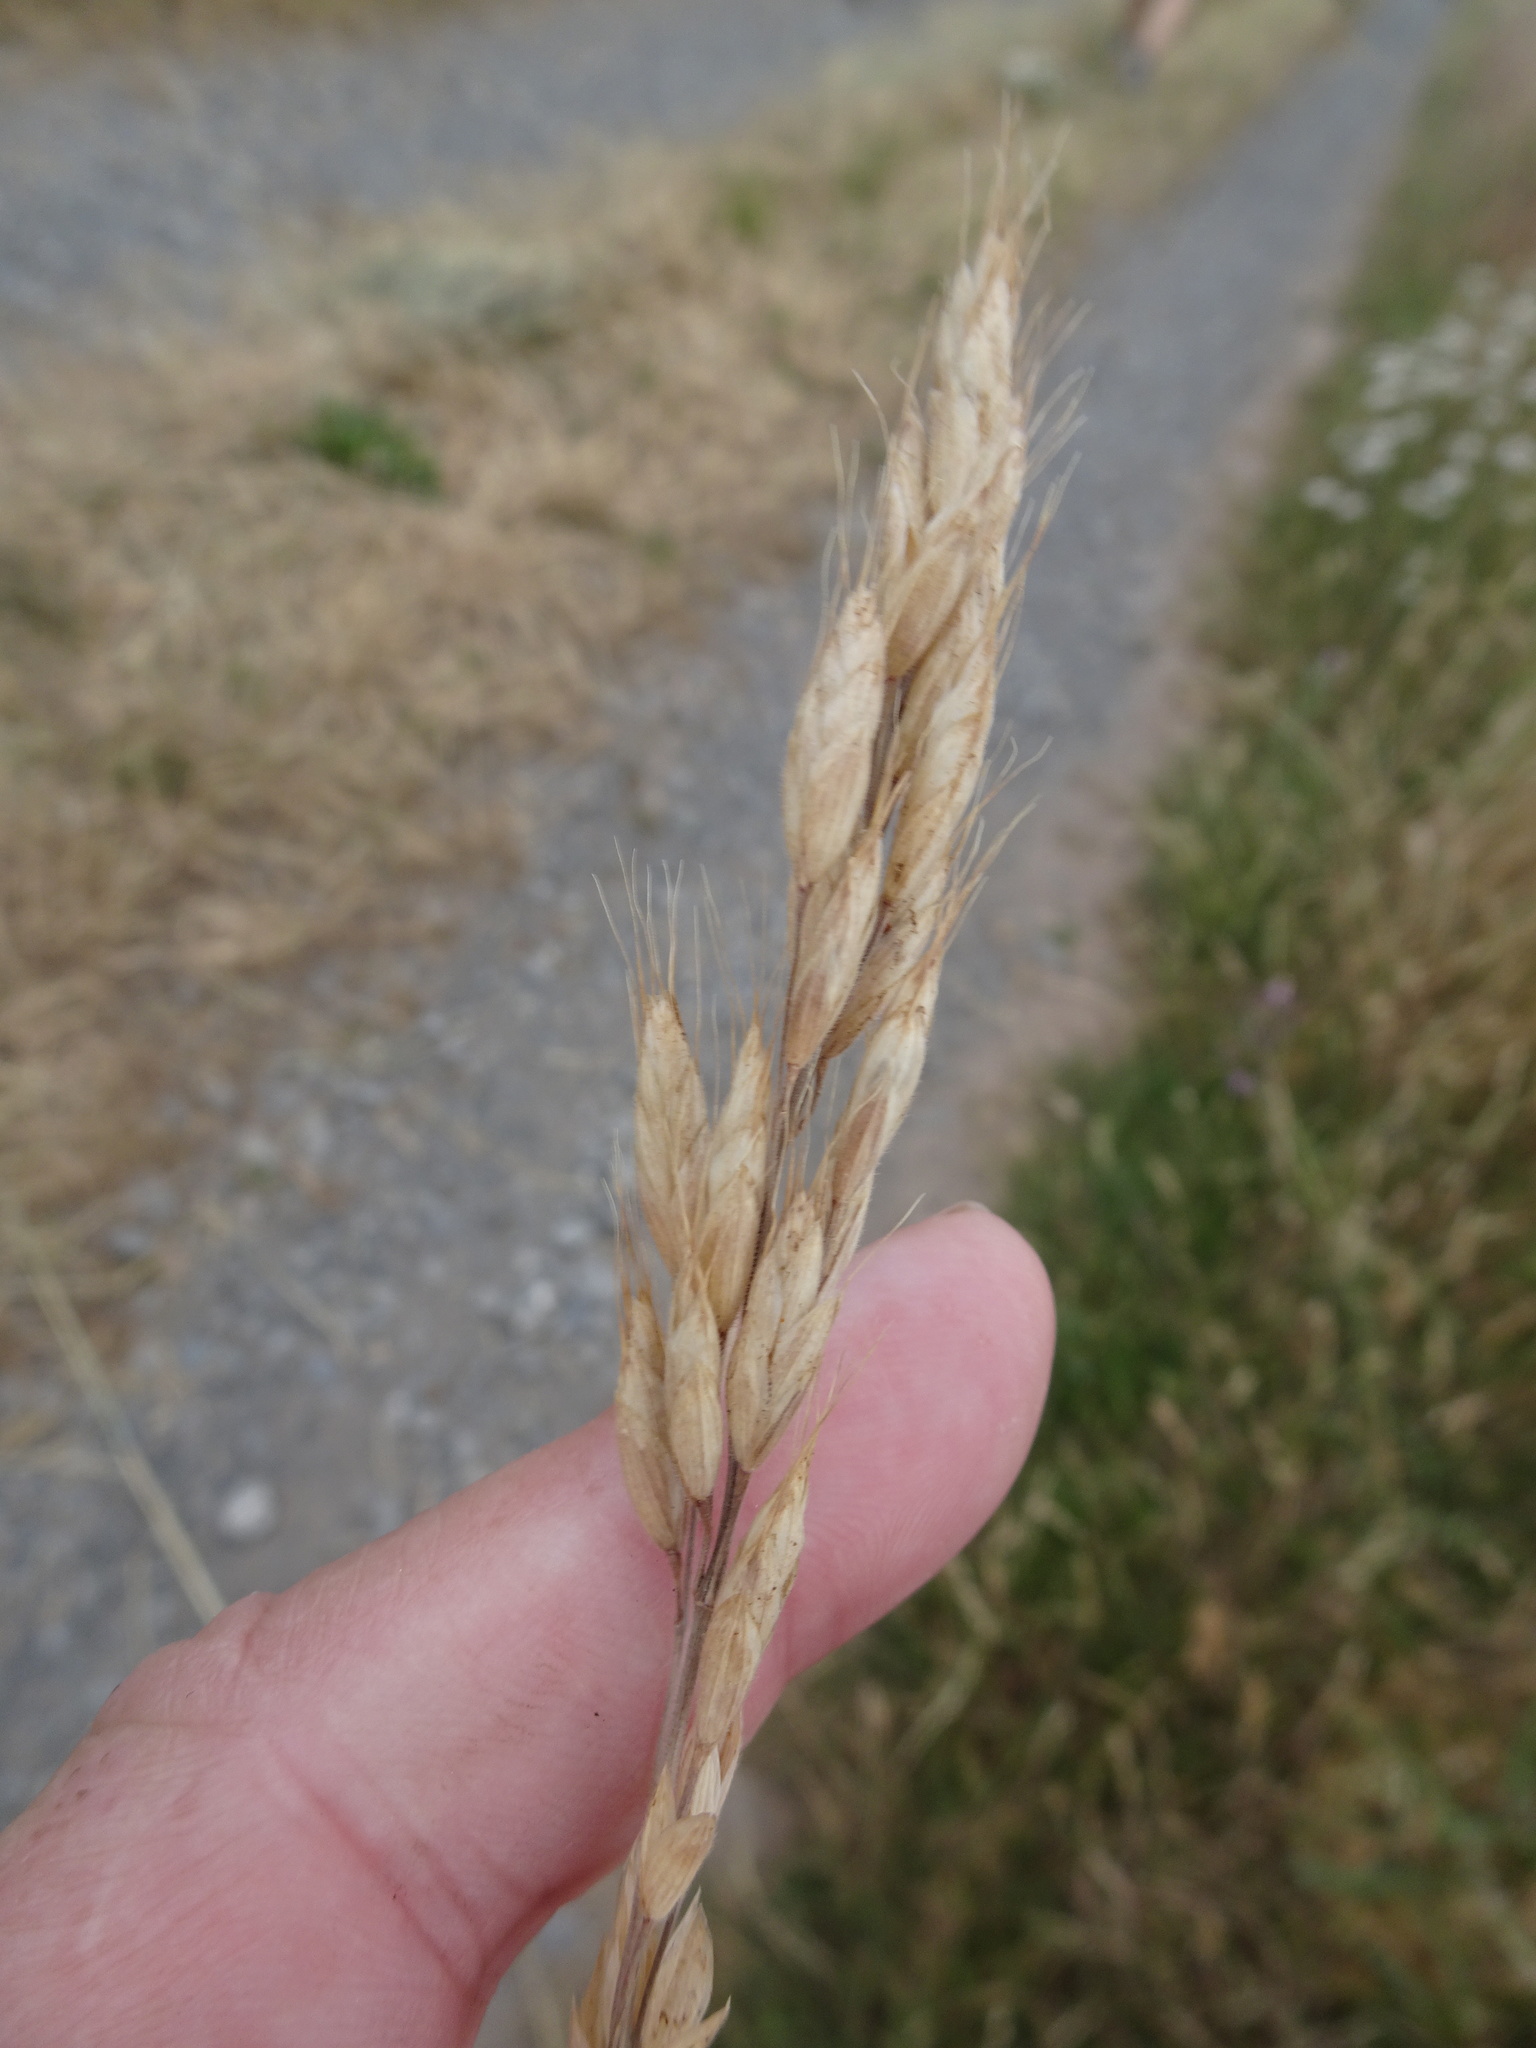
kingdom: Plantae
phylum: Tracheophyta
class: Liliopsida
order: Poales
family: Poaceae
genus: Bromus
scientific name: Bromus hordeaceus
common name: Soft brome
